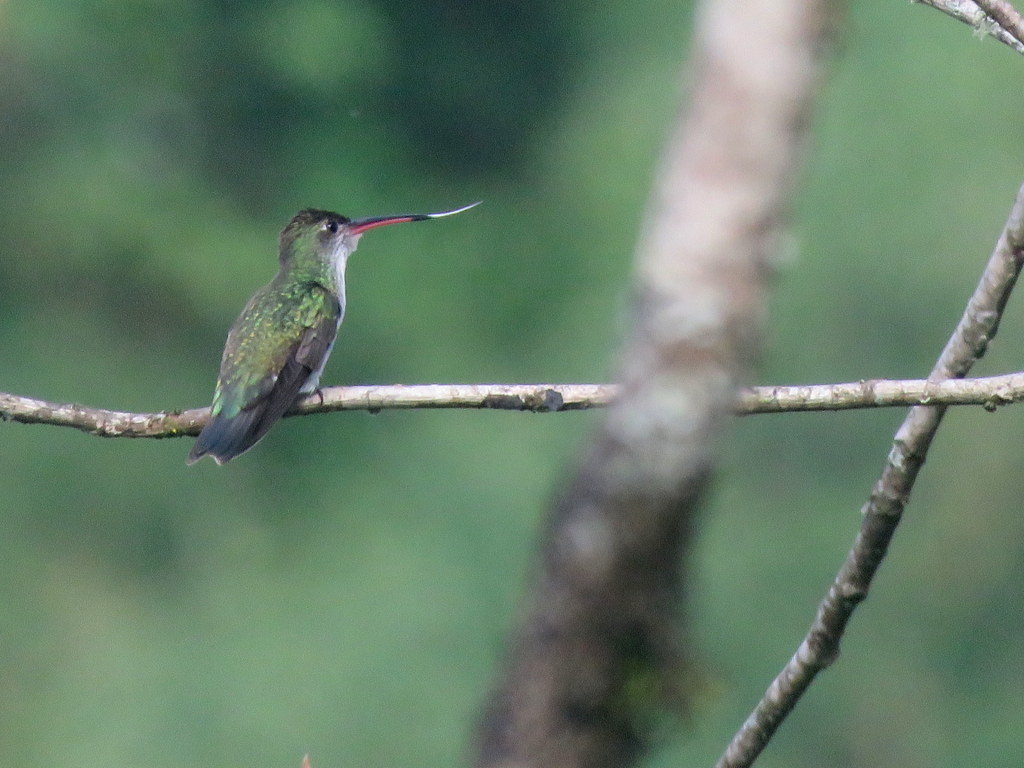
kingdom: Animalia
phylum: Chordata
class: Aves
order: Apodiformes
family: Trochilidae
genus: Elliotomyia
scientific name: Elliotomyia chionogaster
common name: White-bellied hummingbird
